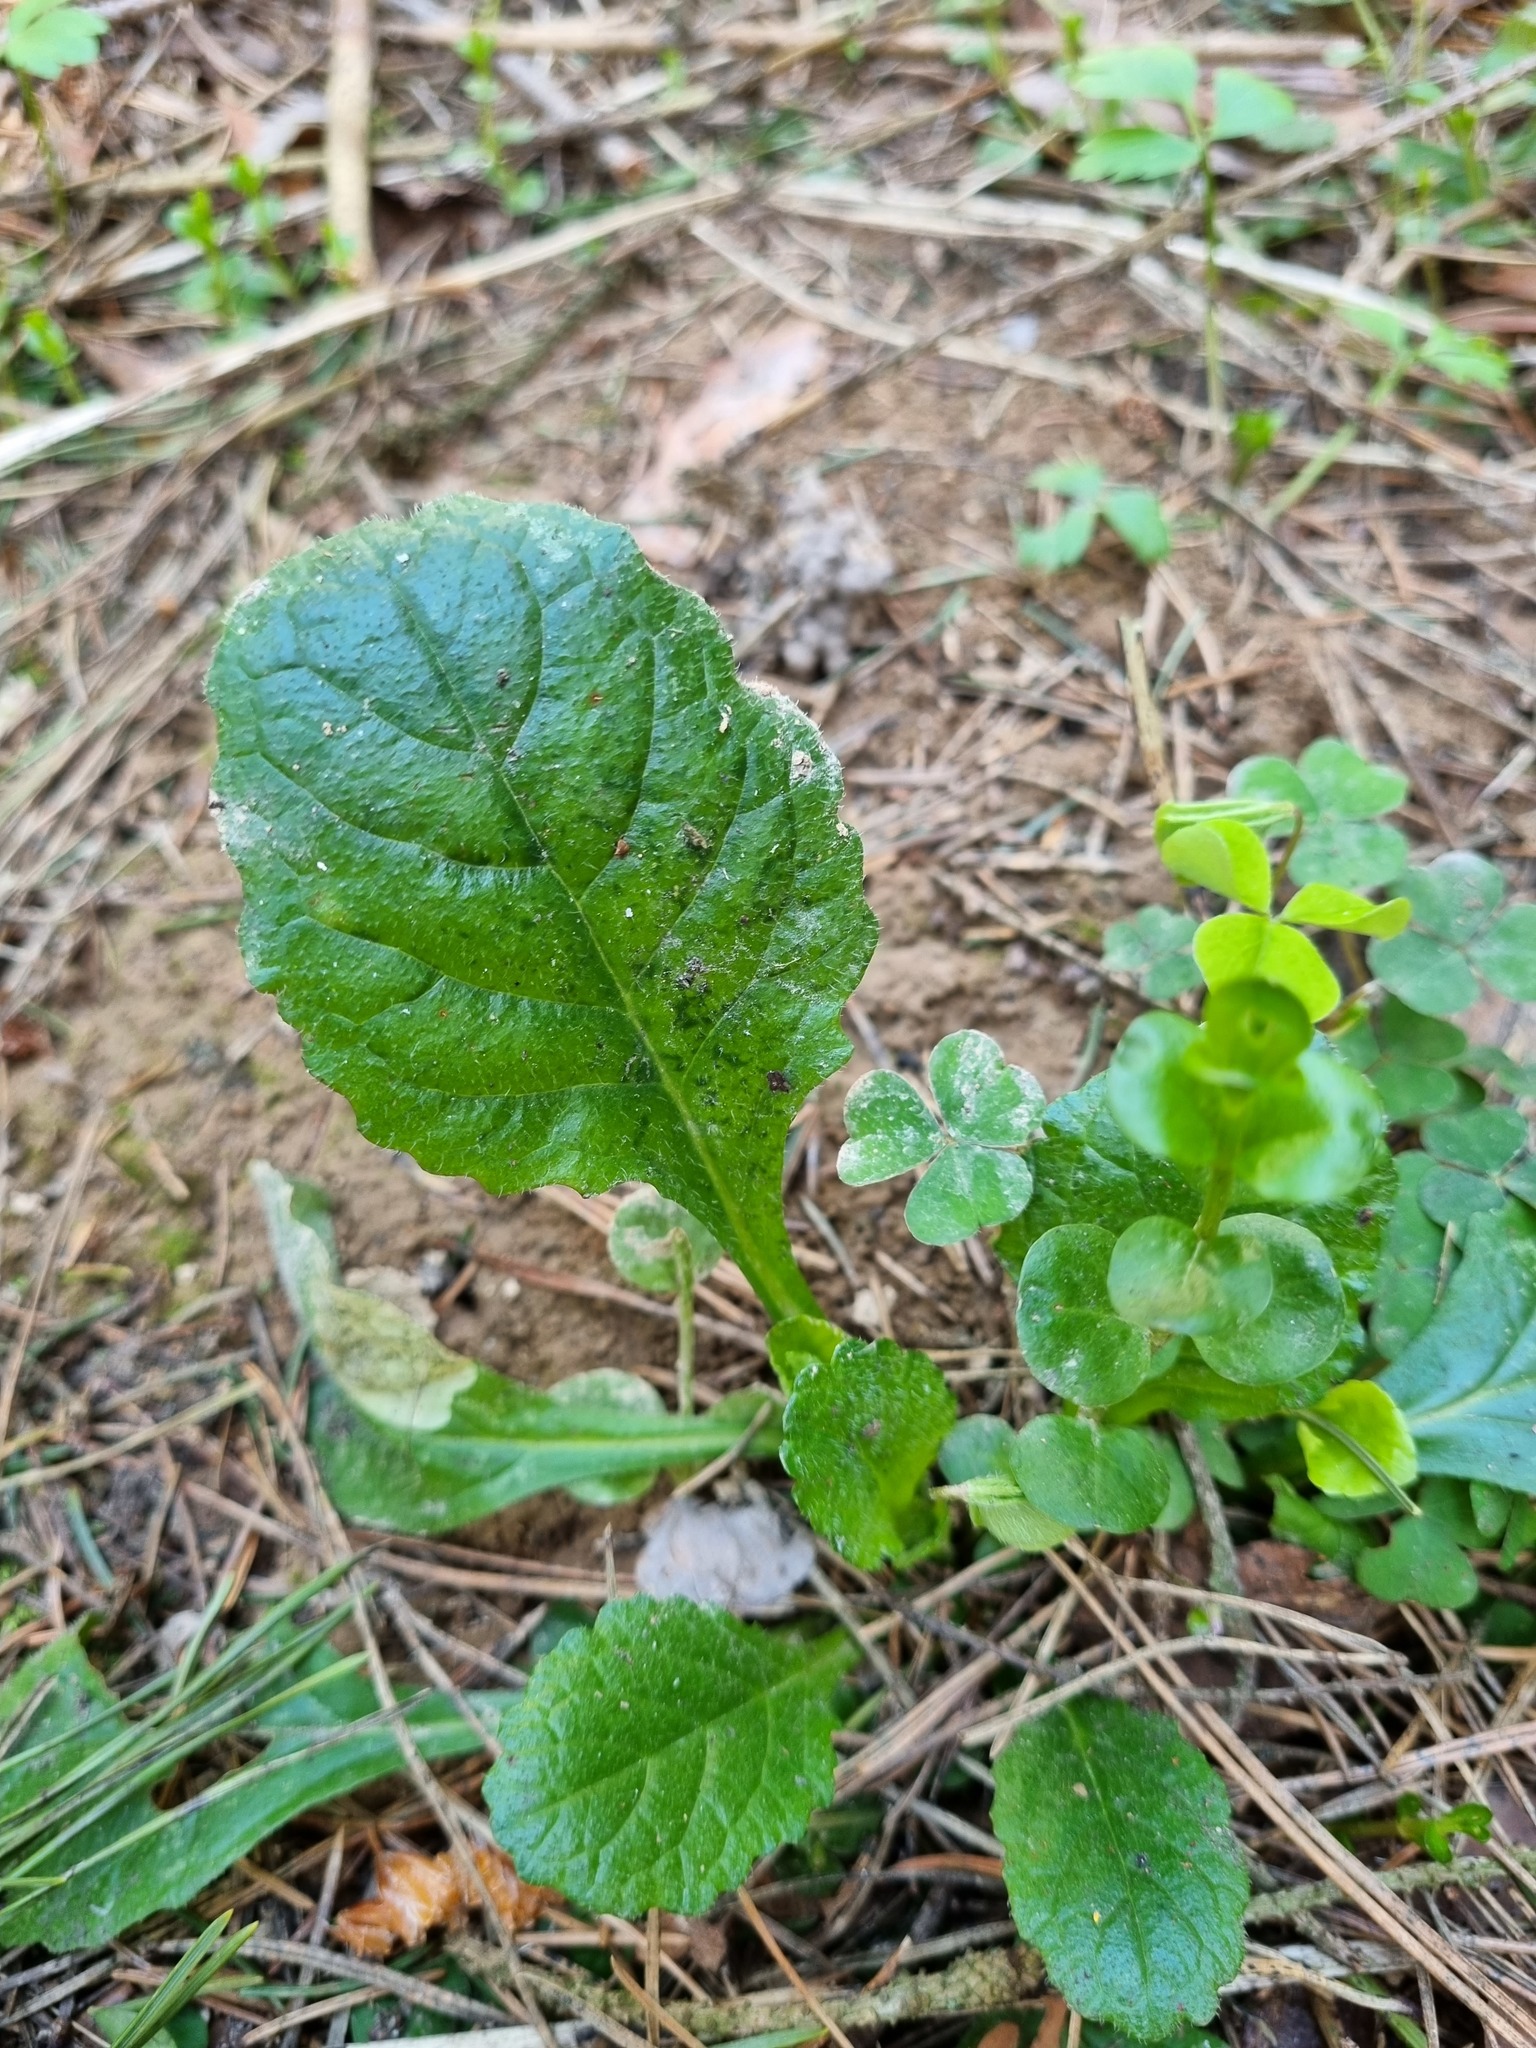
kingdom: Plantae
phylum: Tracheophyta
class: Magnoliopsida
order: Lamiales
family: Lamiaceae
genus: Ajuga
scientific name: Ajuga reptans
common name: Bugle
